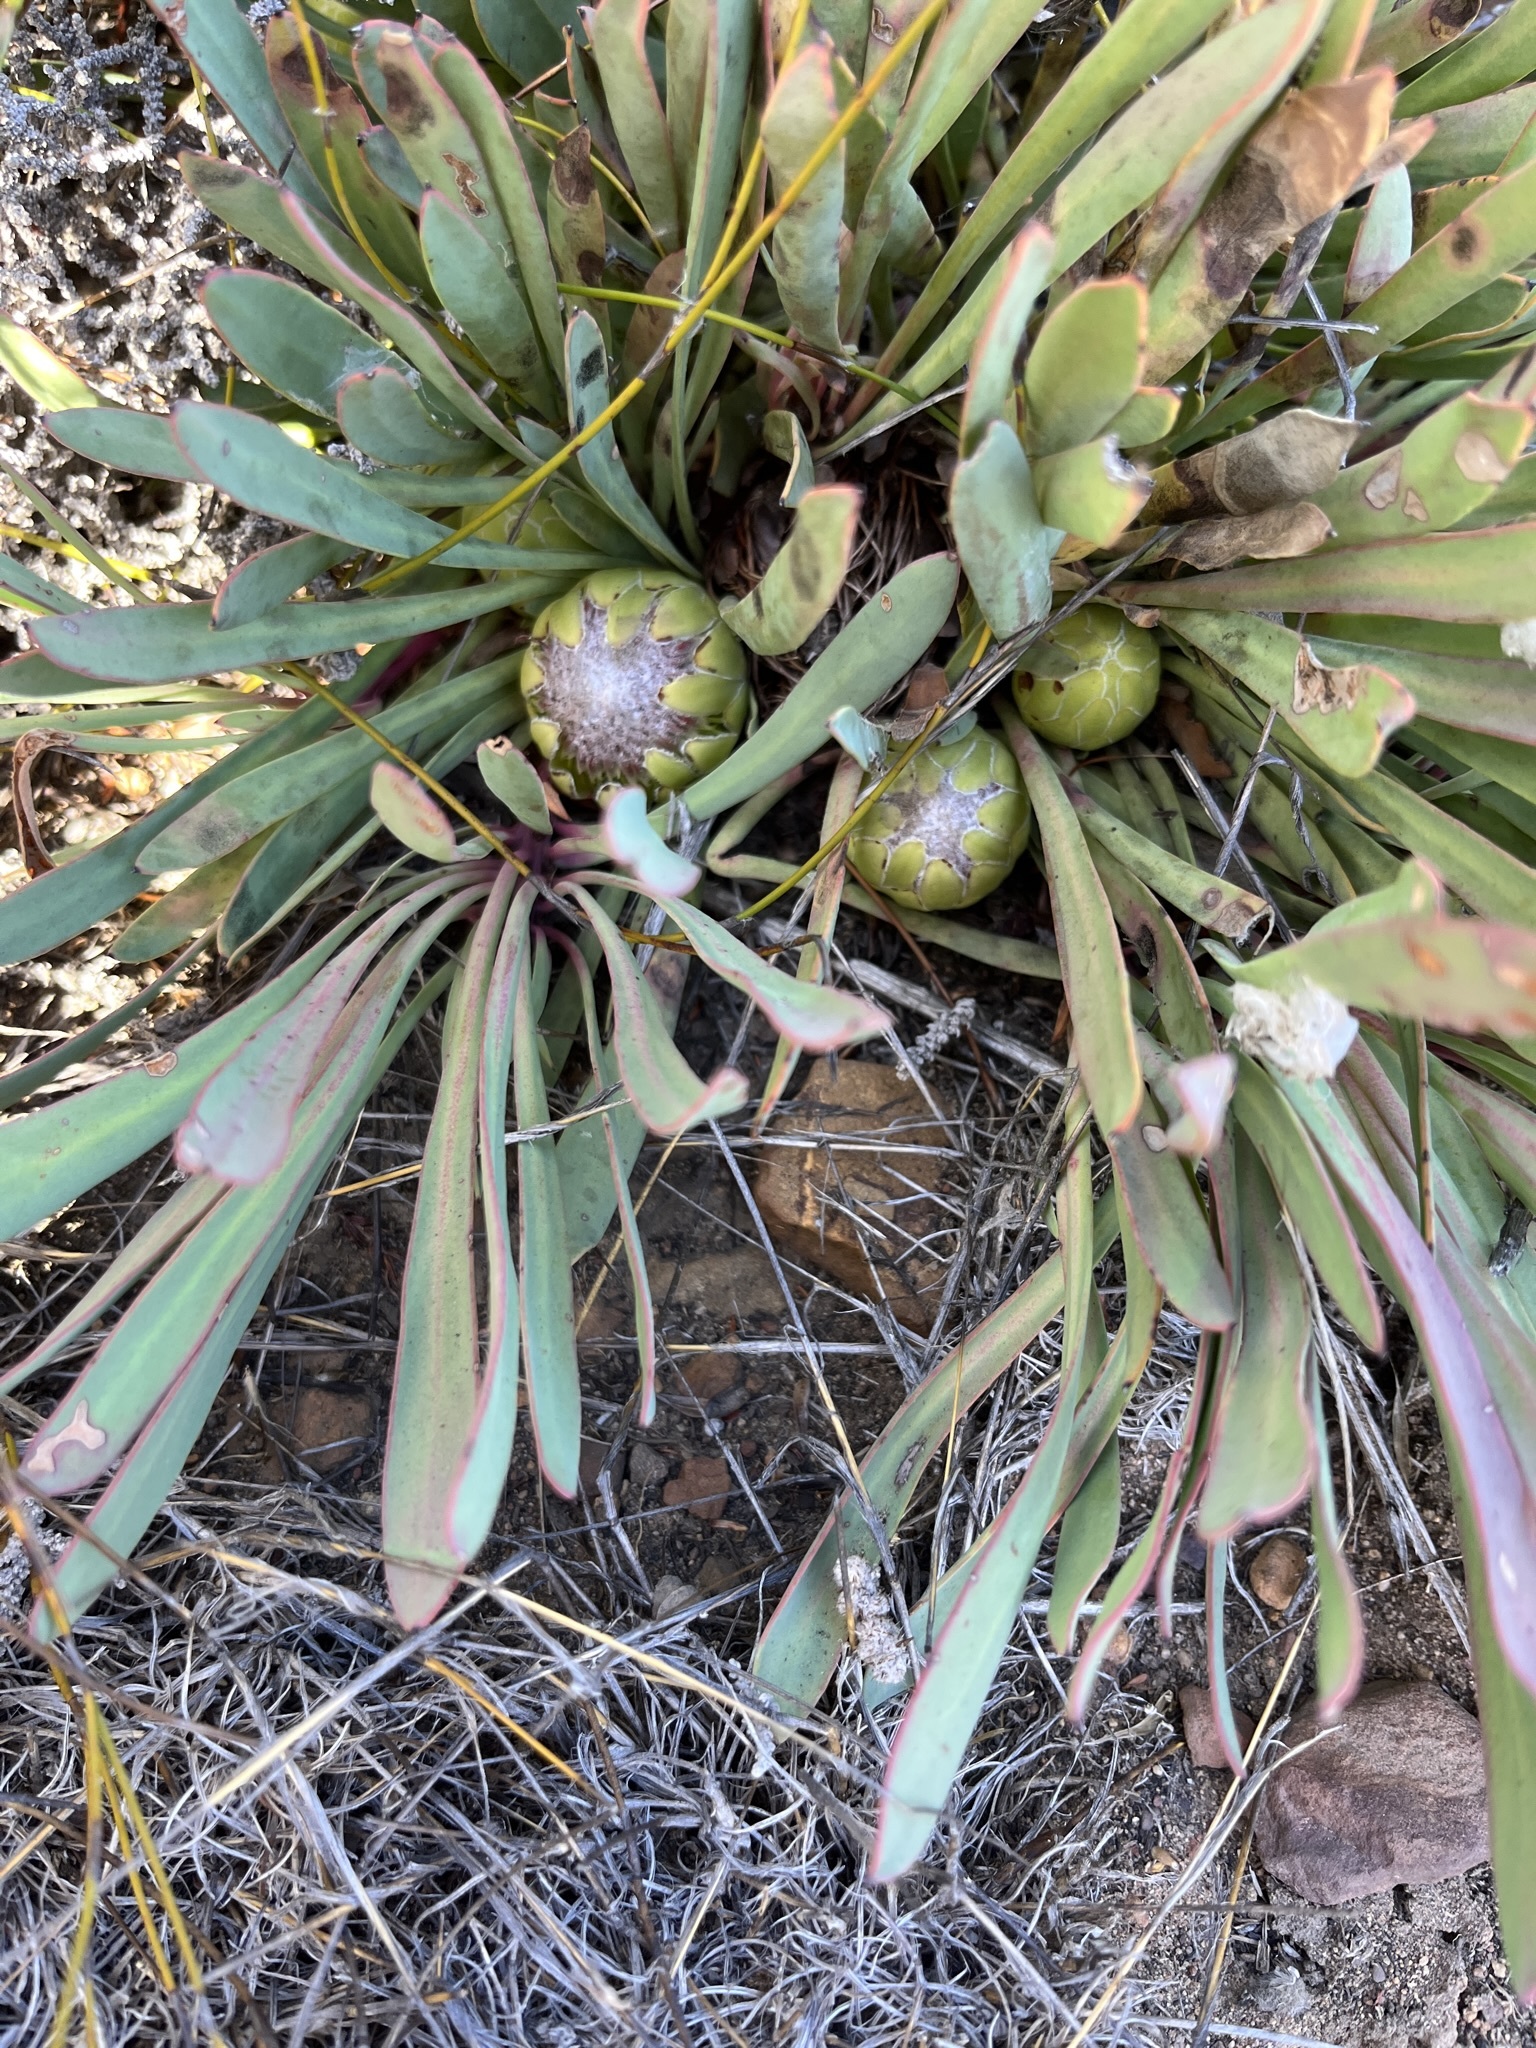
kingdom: Plantae
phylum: Tracheophyta
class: Magnoliopsida
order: Proteales
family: Proteaceae
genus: Protea
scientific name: Protea laevis
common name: Smooth-leaf sugarbush
